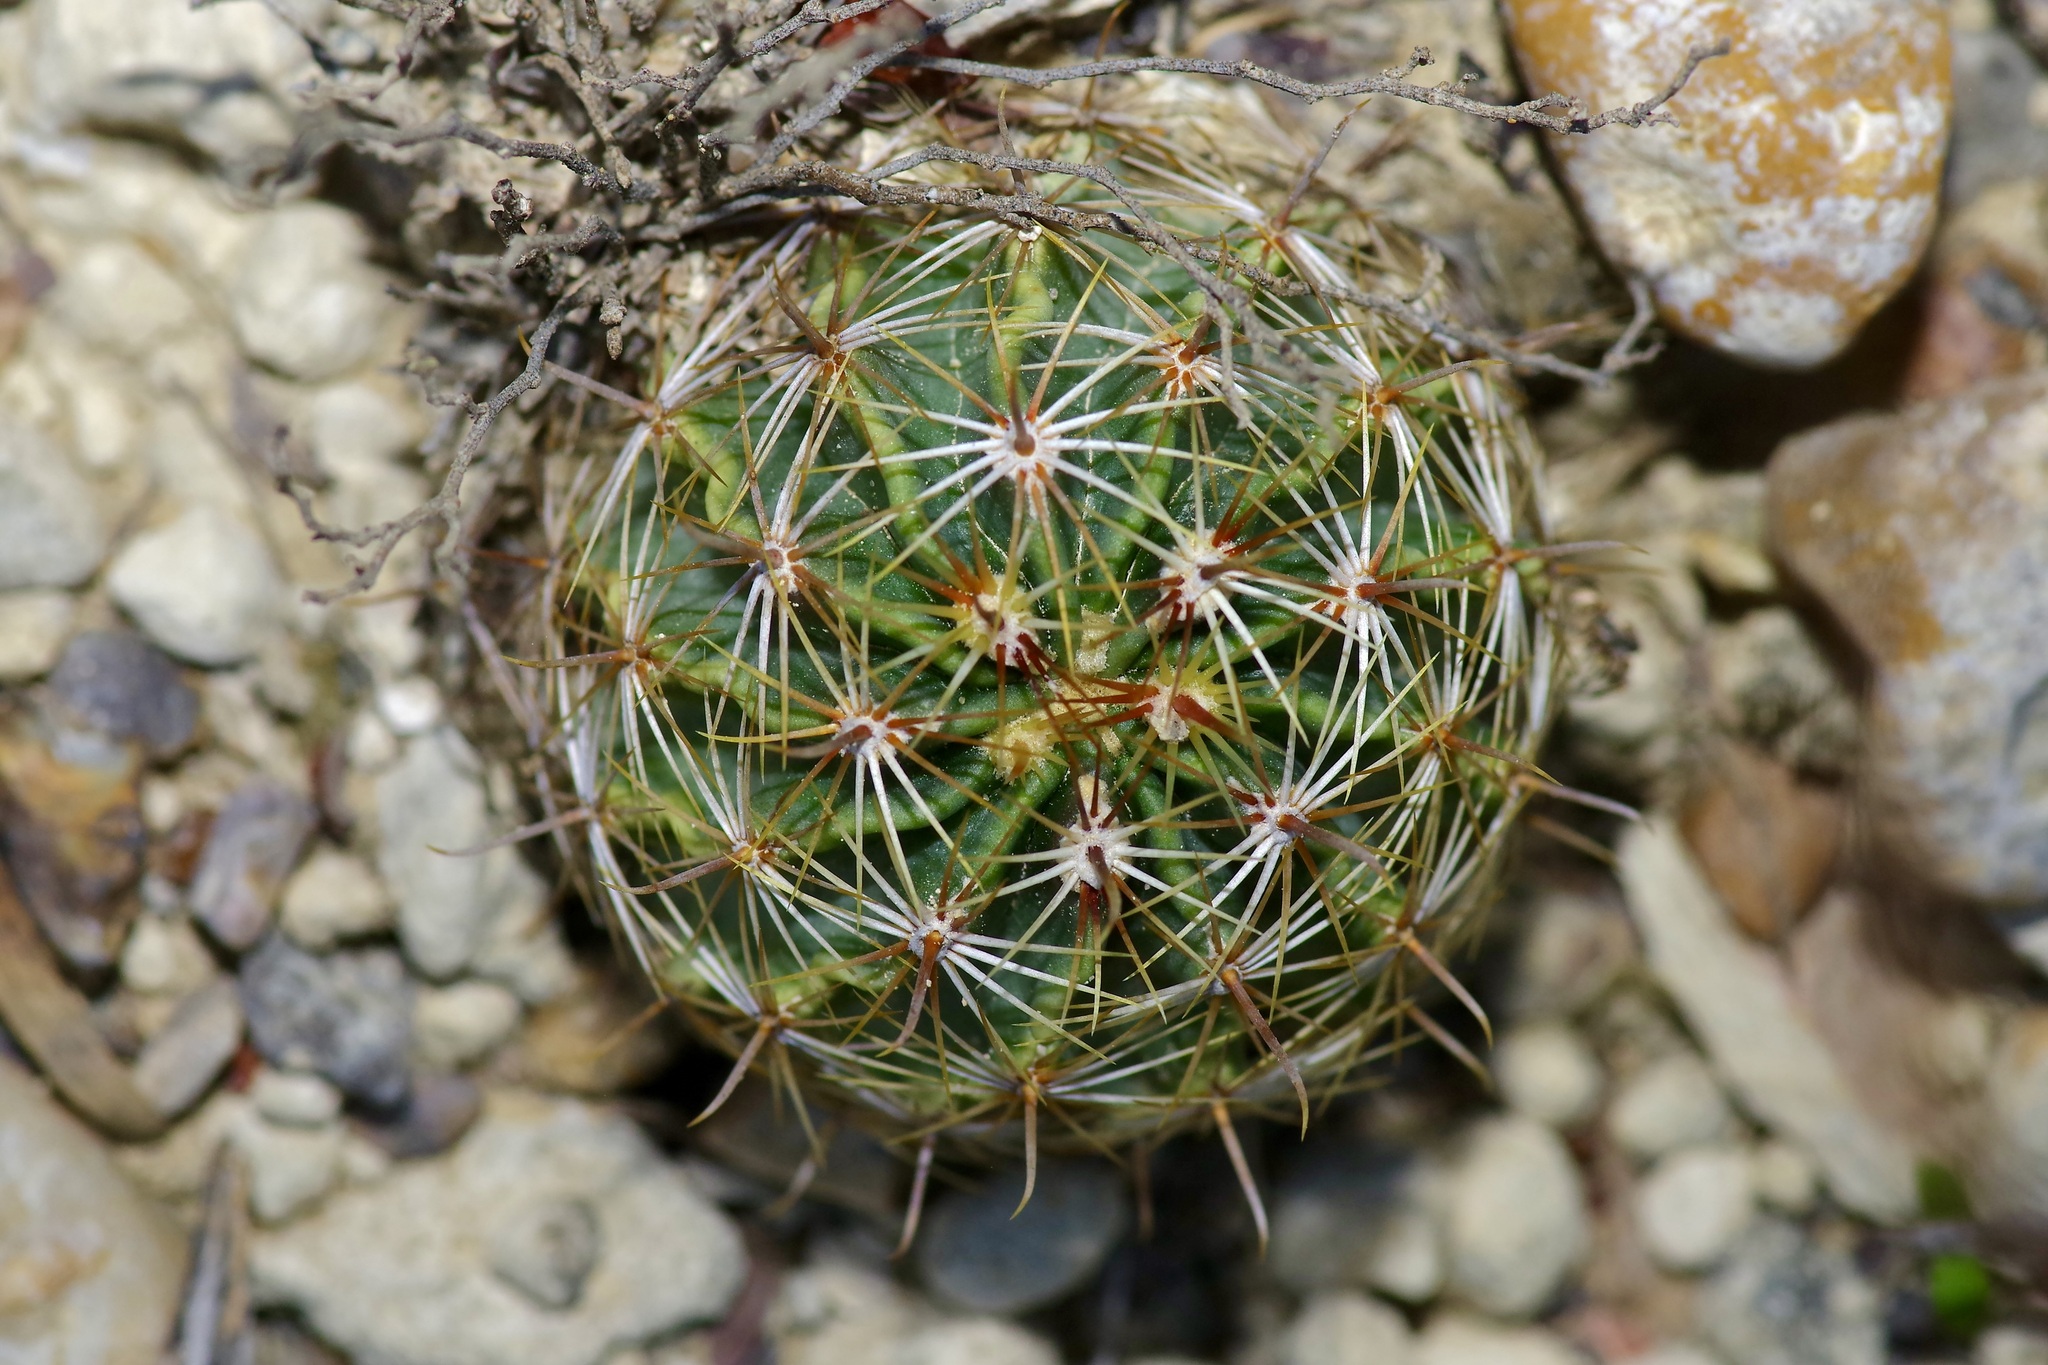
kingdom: Plantae
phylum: Tracheophyta
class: Magnoliopsida
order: Caryophyllales
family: Cactaceae
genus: Thelocactus
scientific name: Thelocactus setispinus
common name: Miniature barrel cactus
